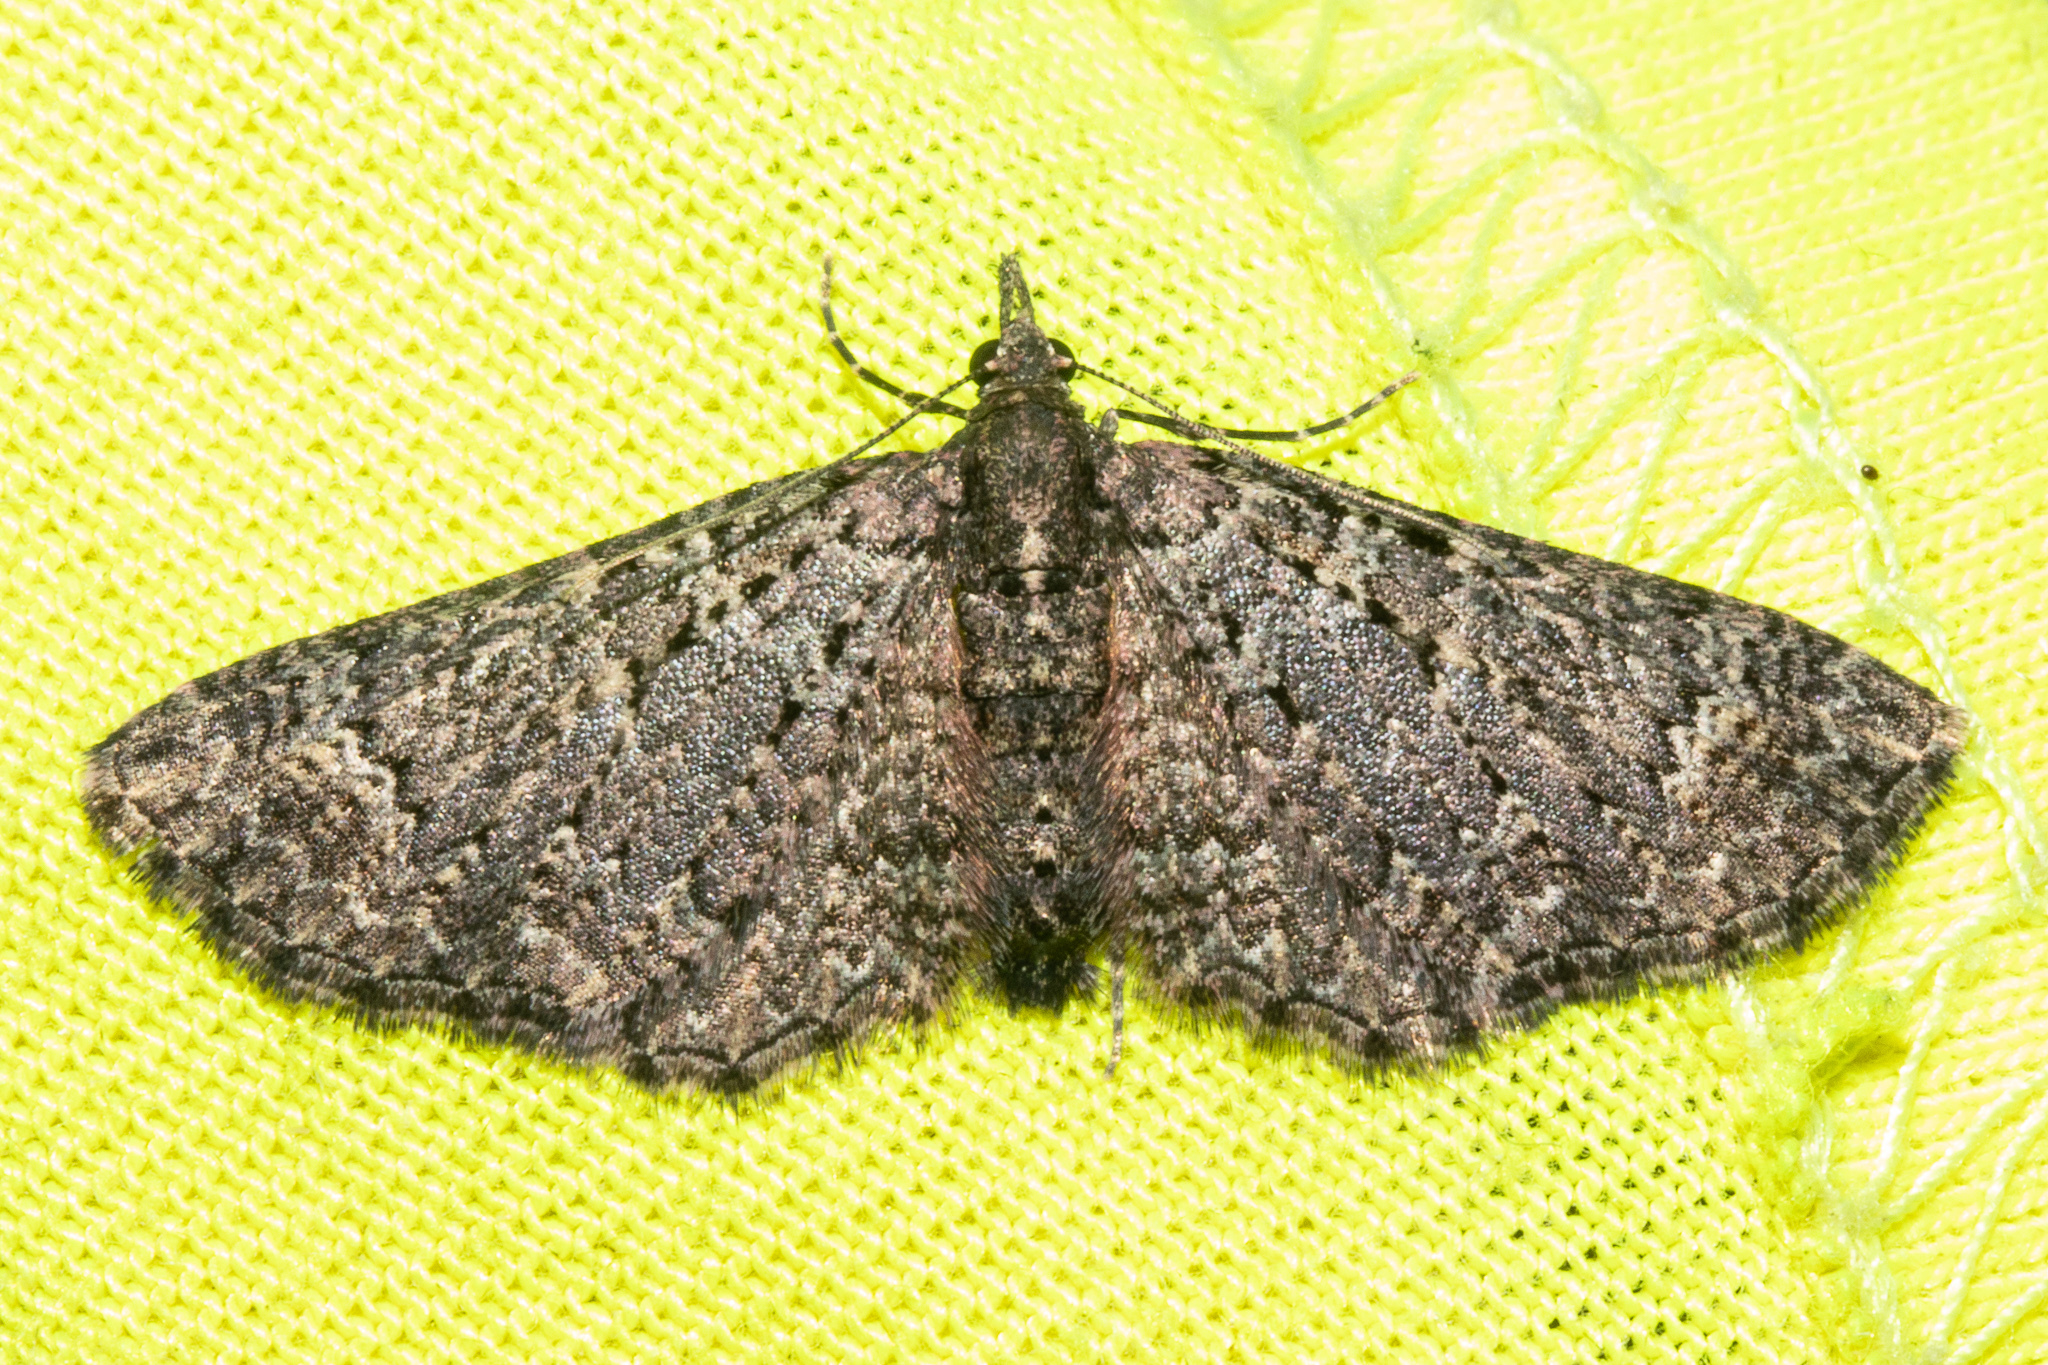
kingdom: Animalia
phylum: Arthropoda
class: Insecta
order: Lepidoptera
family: Geometridae
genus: Pasiphila
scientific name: Pasiphila rubella
